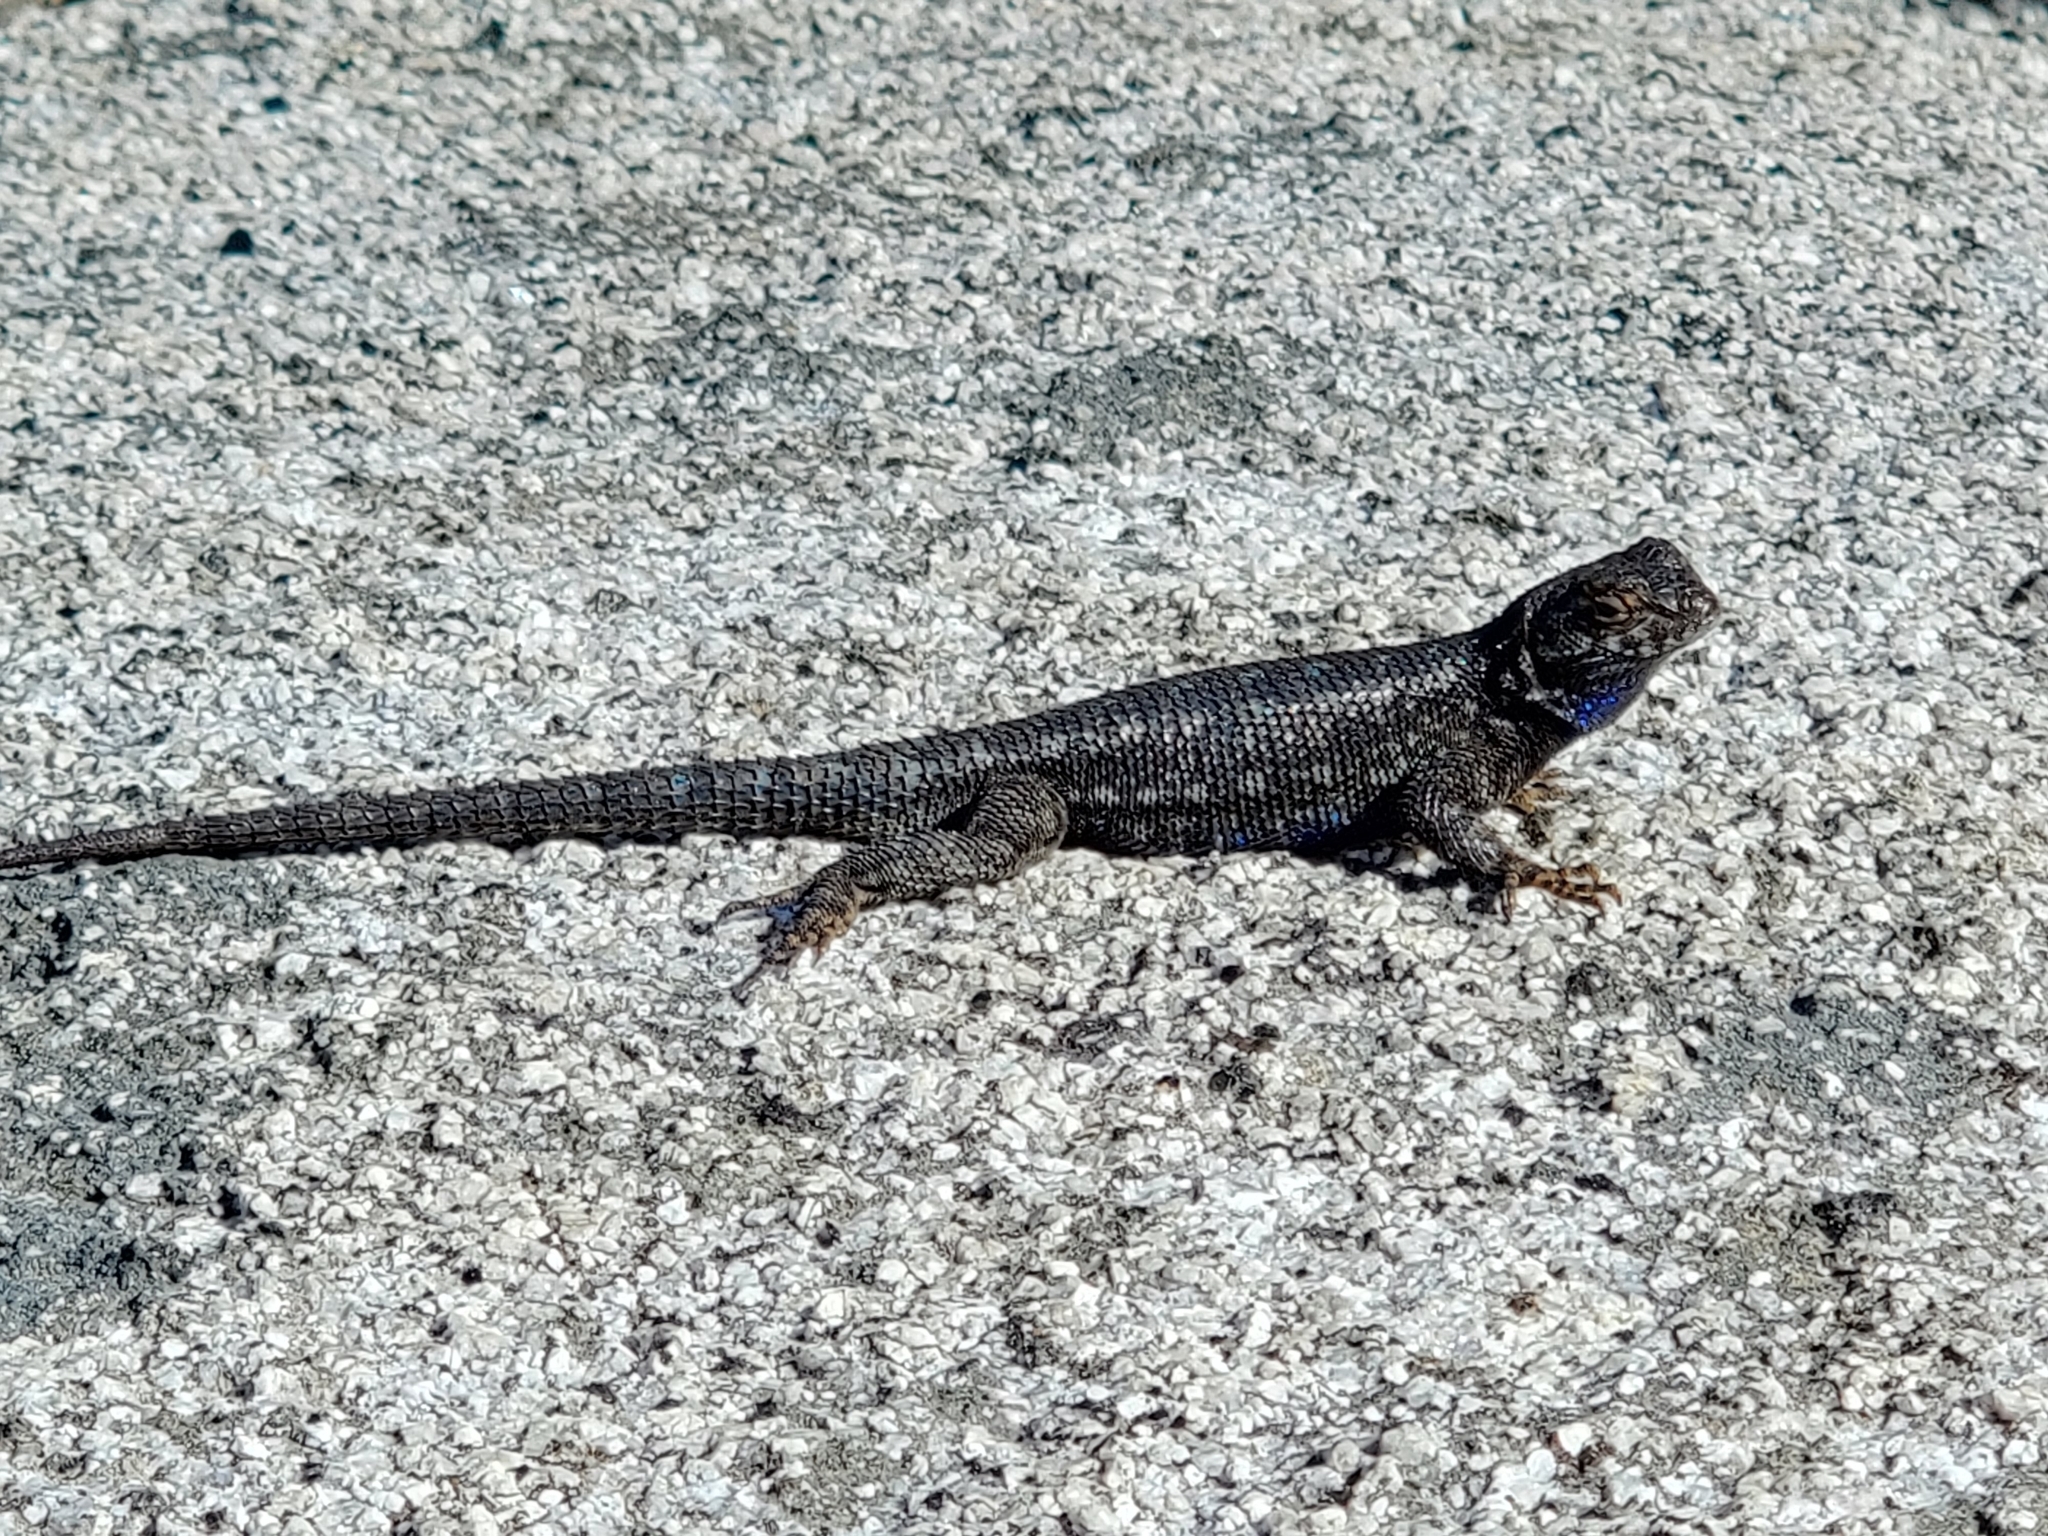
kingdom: Animalia
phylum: Chordata
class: Squamata
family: Phrynosomatidae
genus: Sceloporus
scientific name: Sceloporus occidentalis
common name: Western fence lizard
